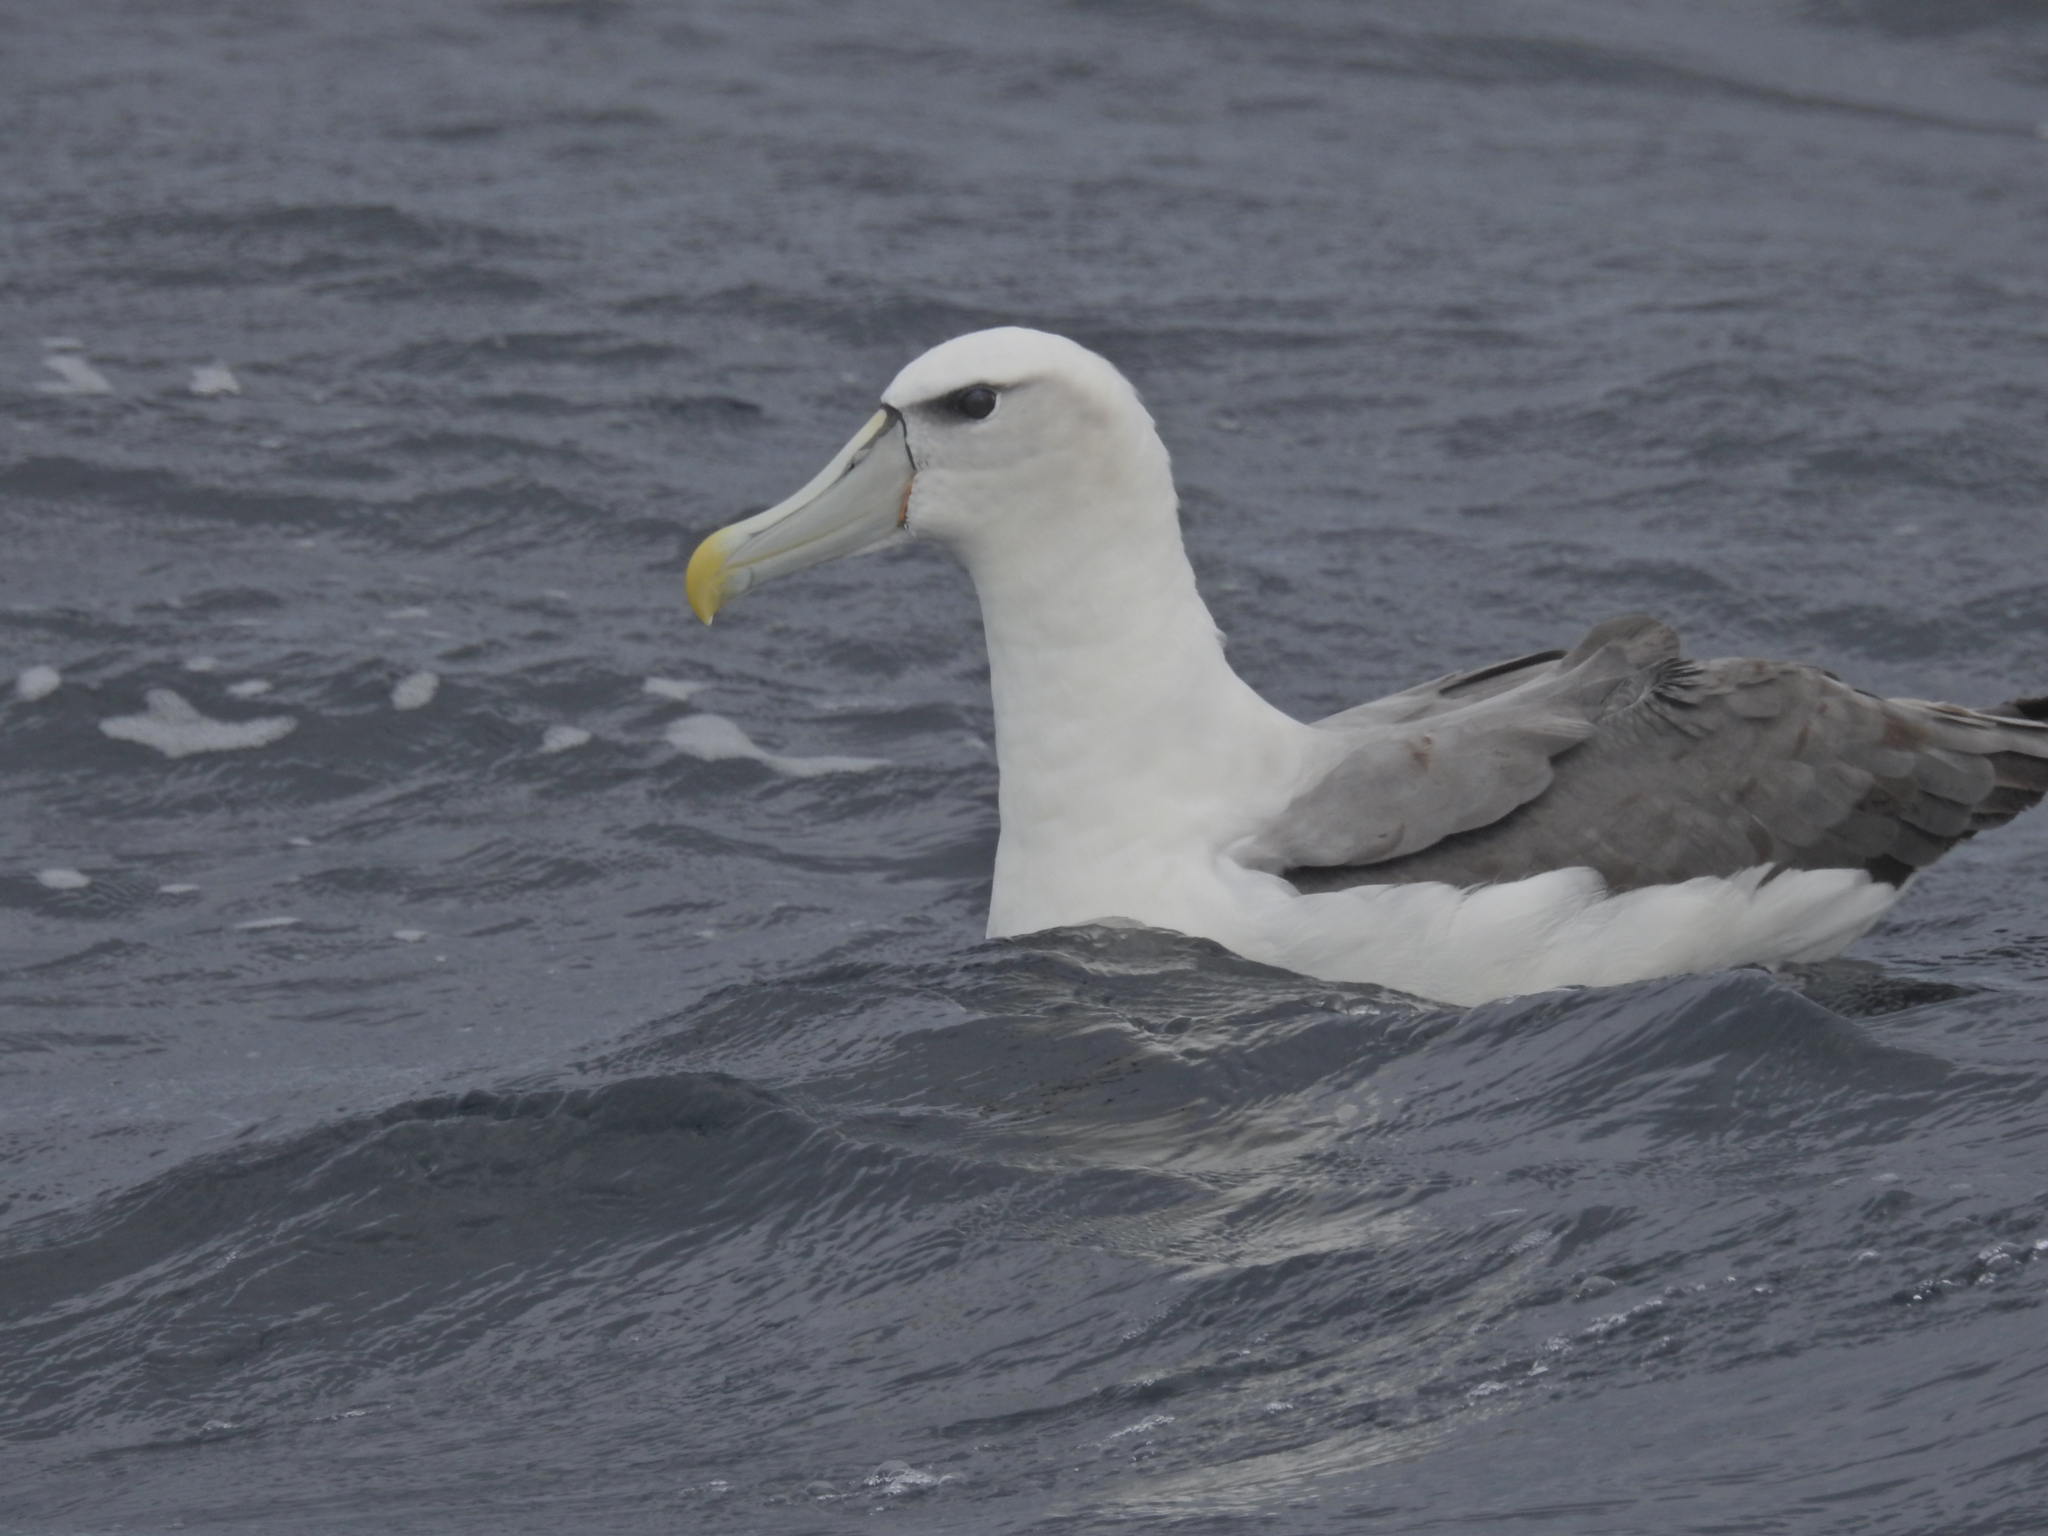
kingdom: Animalia
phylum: Chordata
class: Aves
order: Procellariiformes
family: Diomedeidae
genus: Thalassarche
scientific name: Thalassarche cauta
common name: Shy albatross
